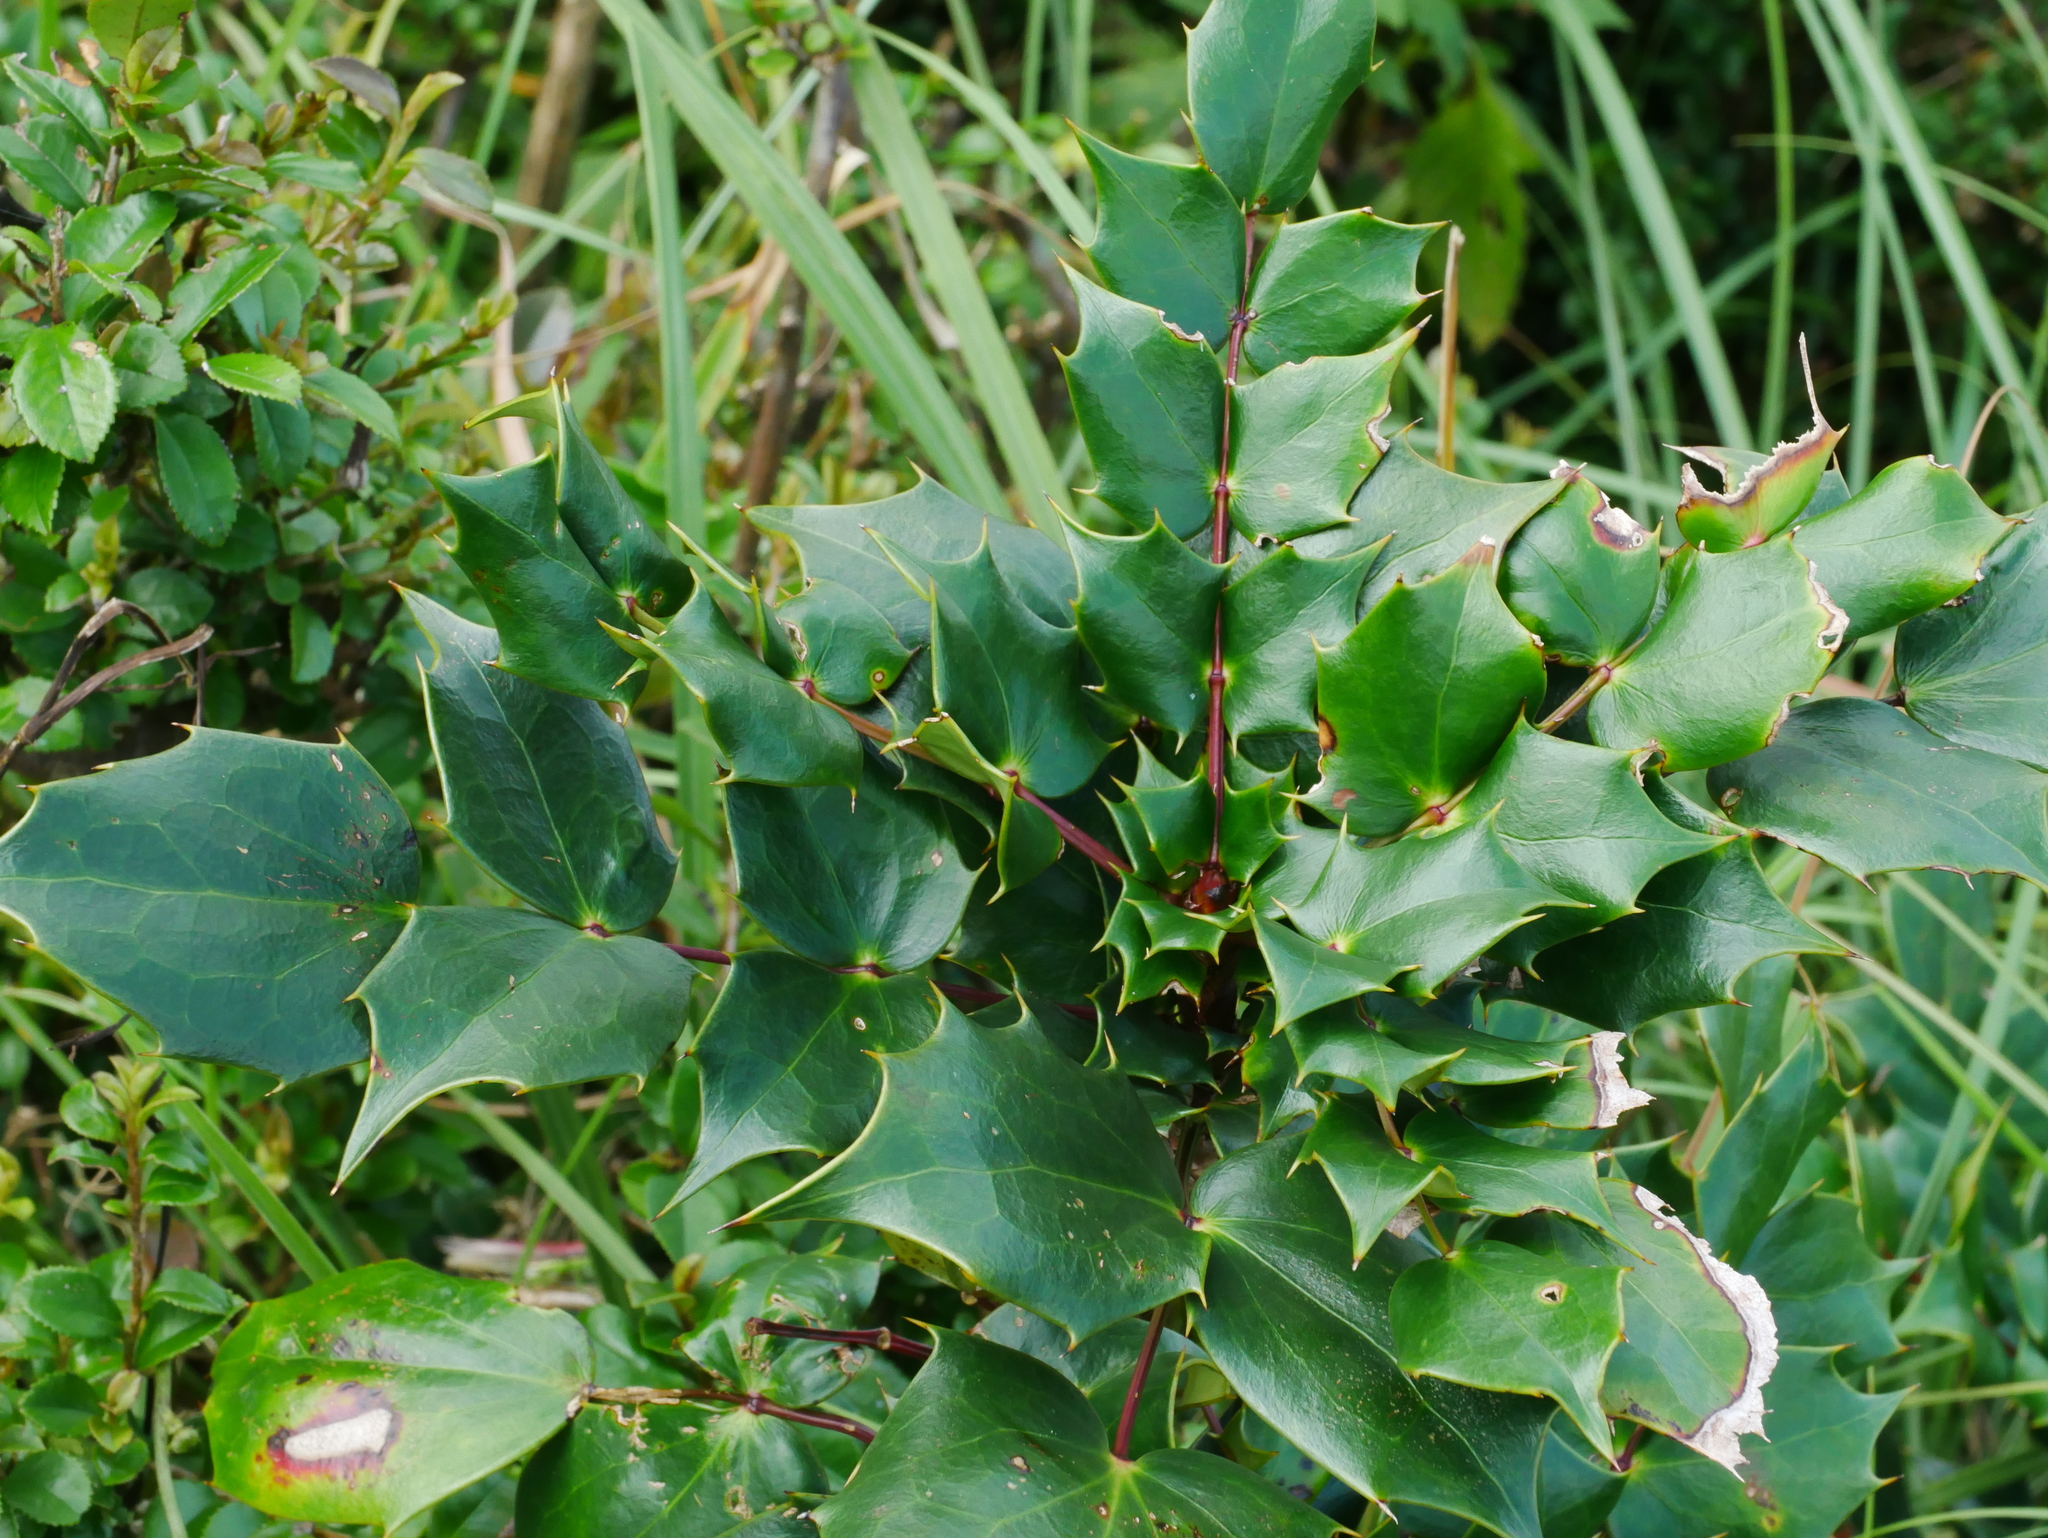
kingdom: Plantae
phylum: Tracheophyta
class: Magnoliopsida
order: Ranunculales
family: Berberidaceae
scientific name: Berberidaceae
